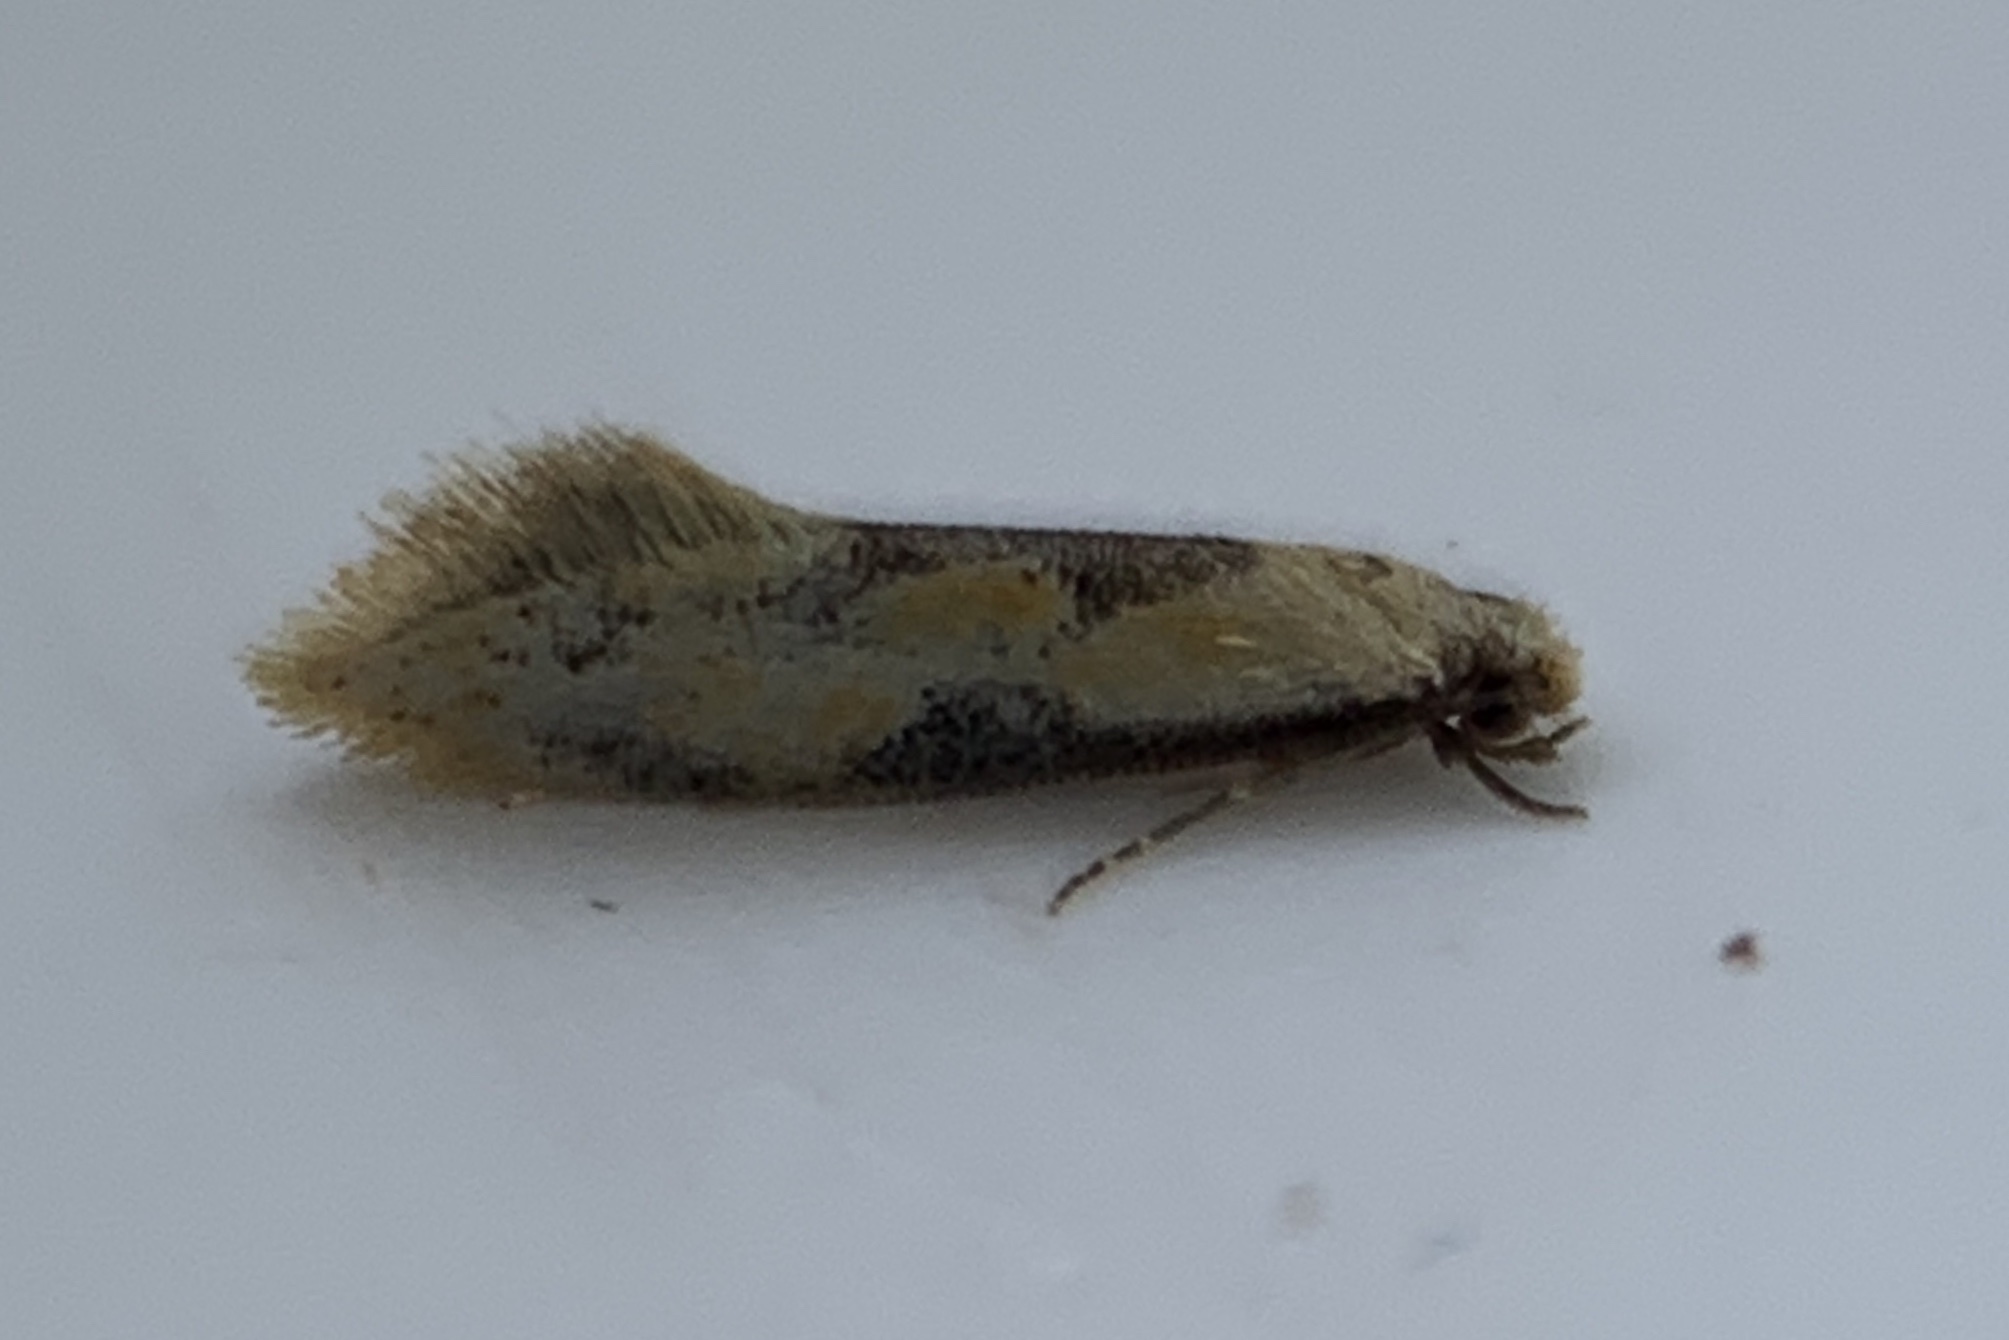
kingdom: Animalia
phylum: Arthropoda
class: Insecta
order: Lepidoptera
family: Meessiidae
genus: Hybroma
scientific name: Hybroma servulella
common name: Yellow wave moth
